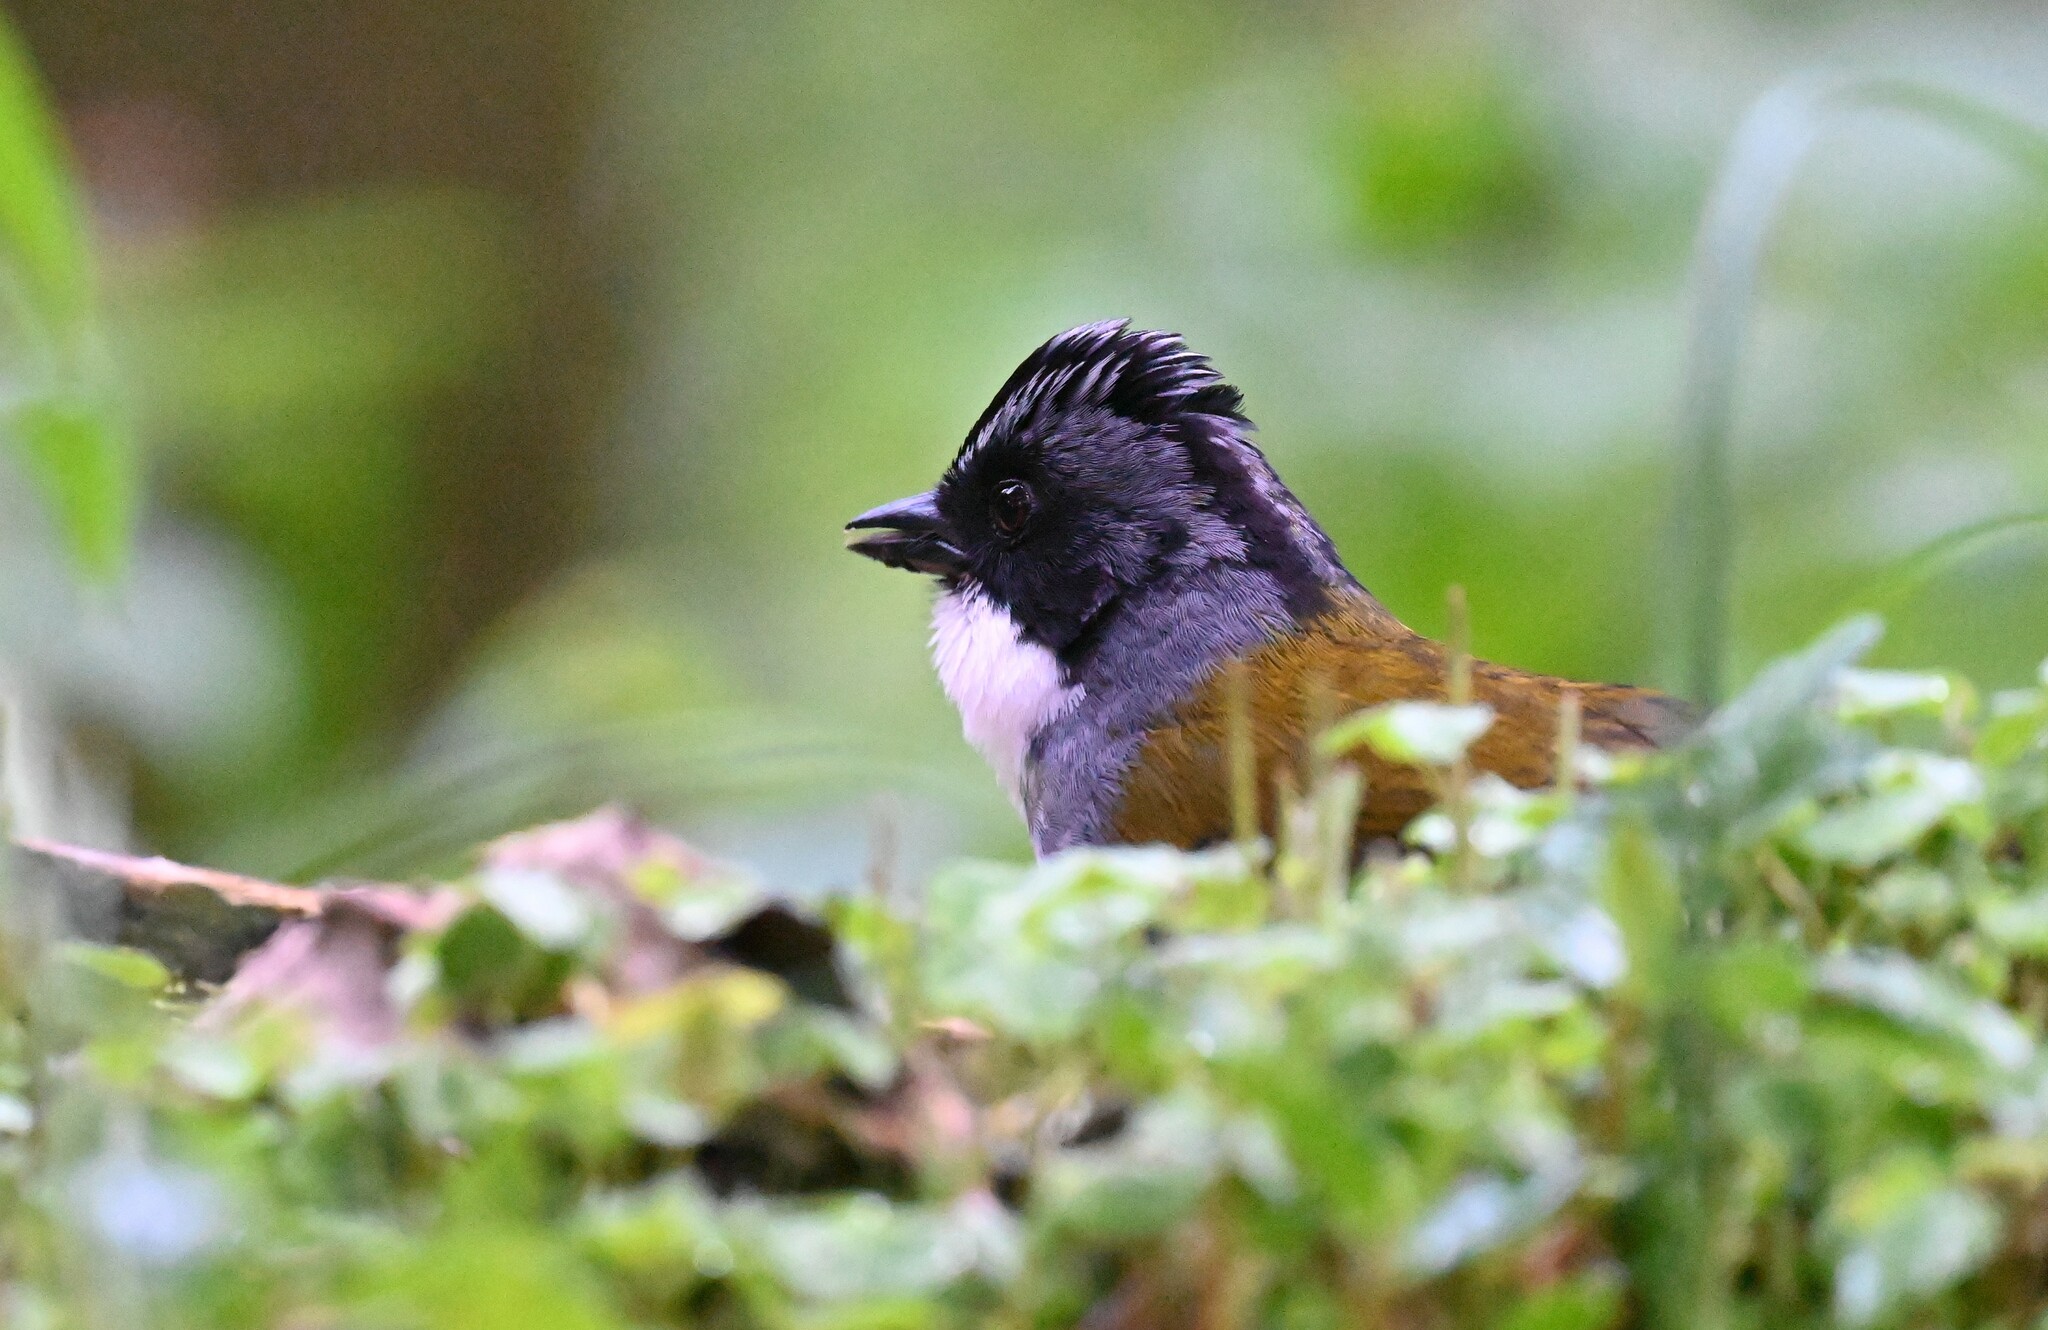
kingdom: Animalia
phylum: Chordata
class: Aves
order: Passeriformes
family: Passerellidae
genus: Arremon
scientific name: Arremon assimilis
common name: Grey-browed brushfinch
